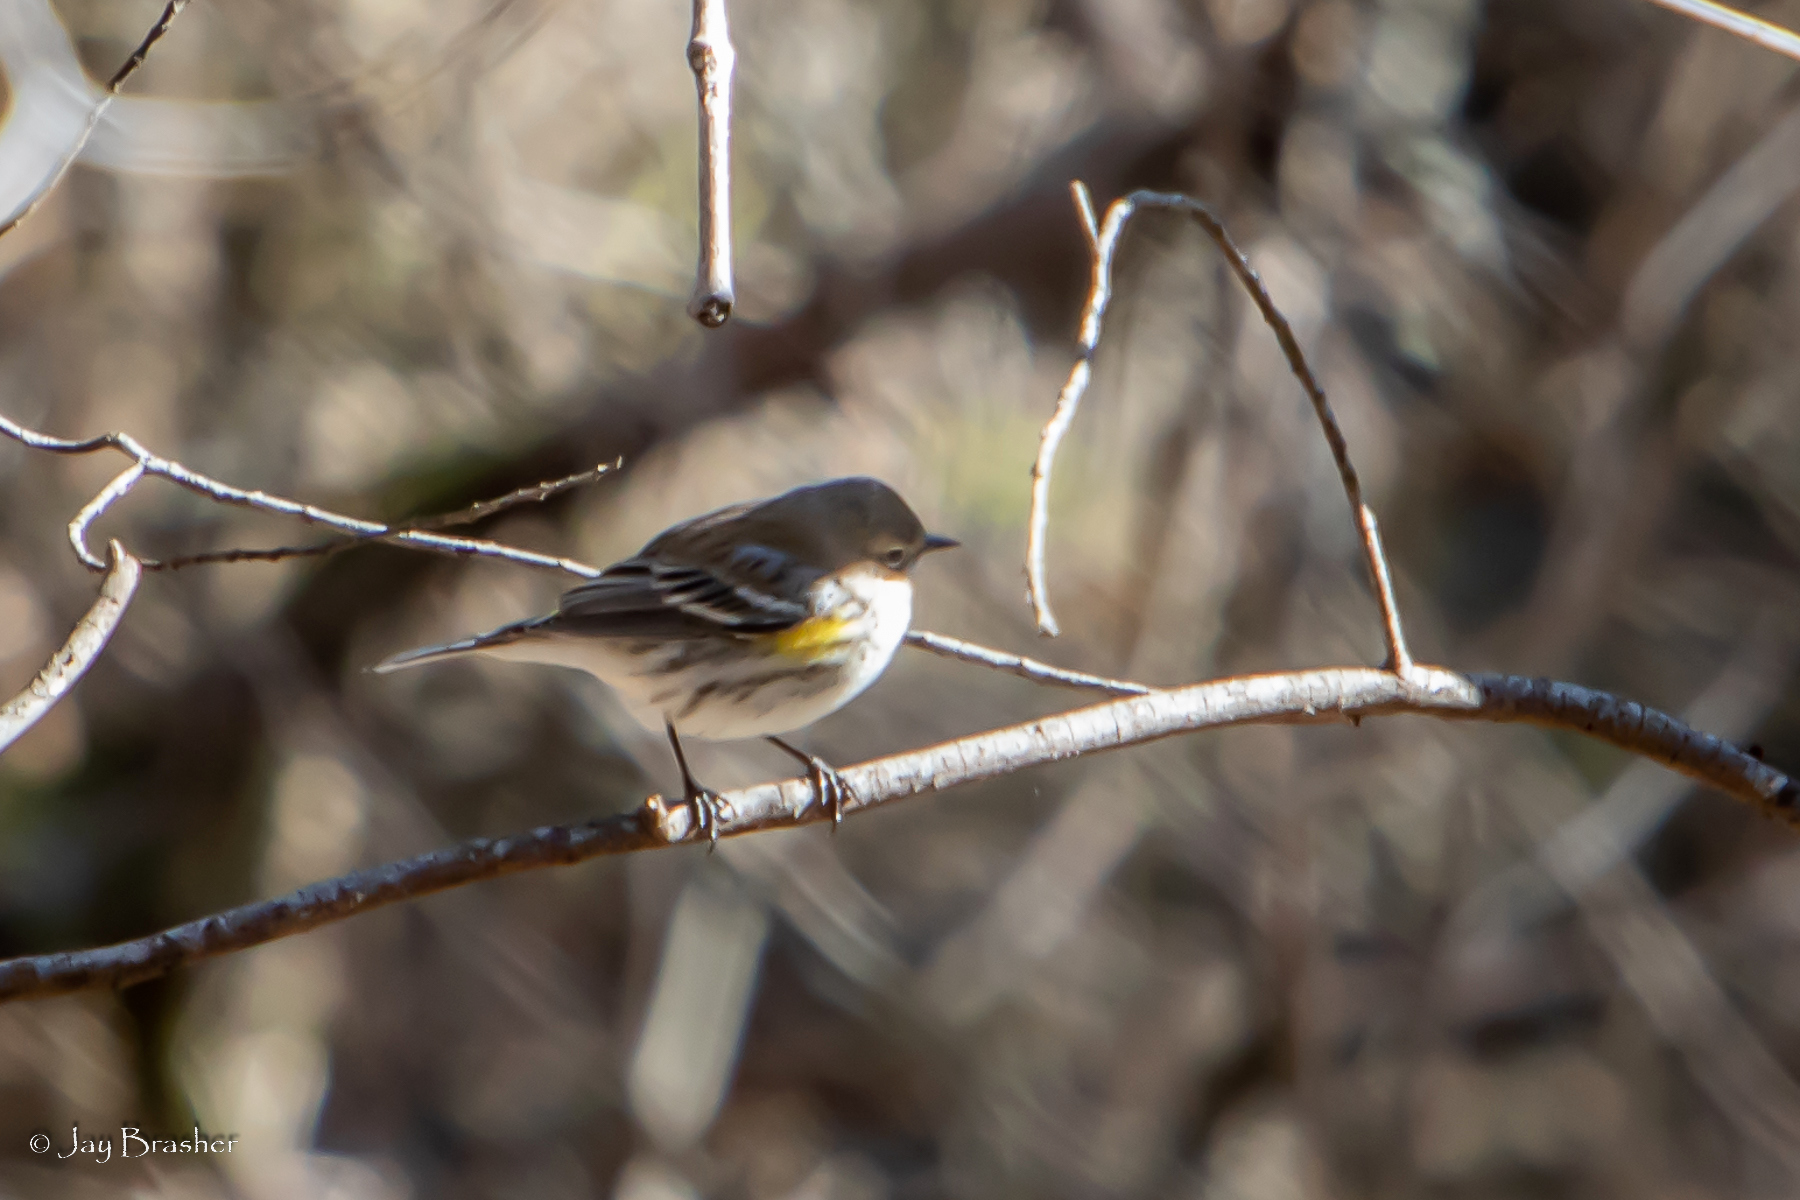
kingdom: Animalia
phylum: Chordata
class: Aves
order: Passeriformes
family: Parulidae
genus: Setophaga
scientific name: Setophaga coronata
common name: Myrtle warbler
